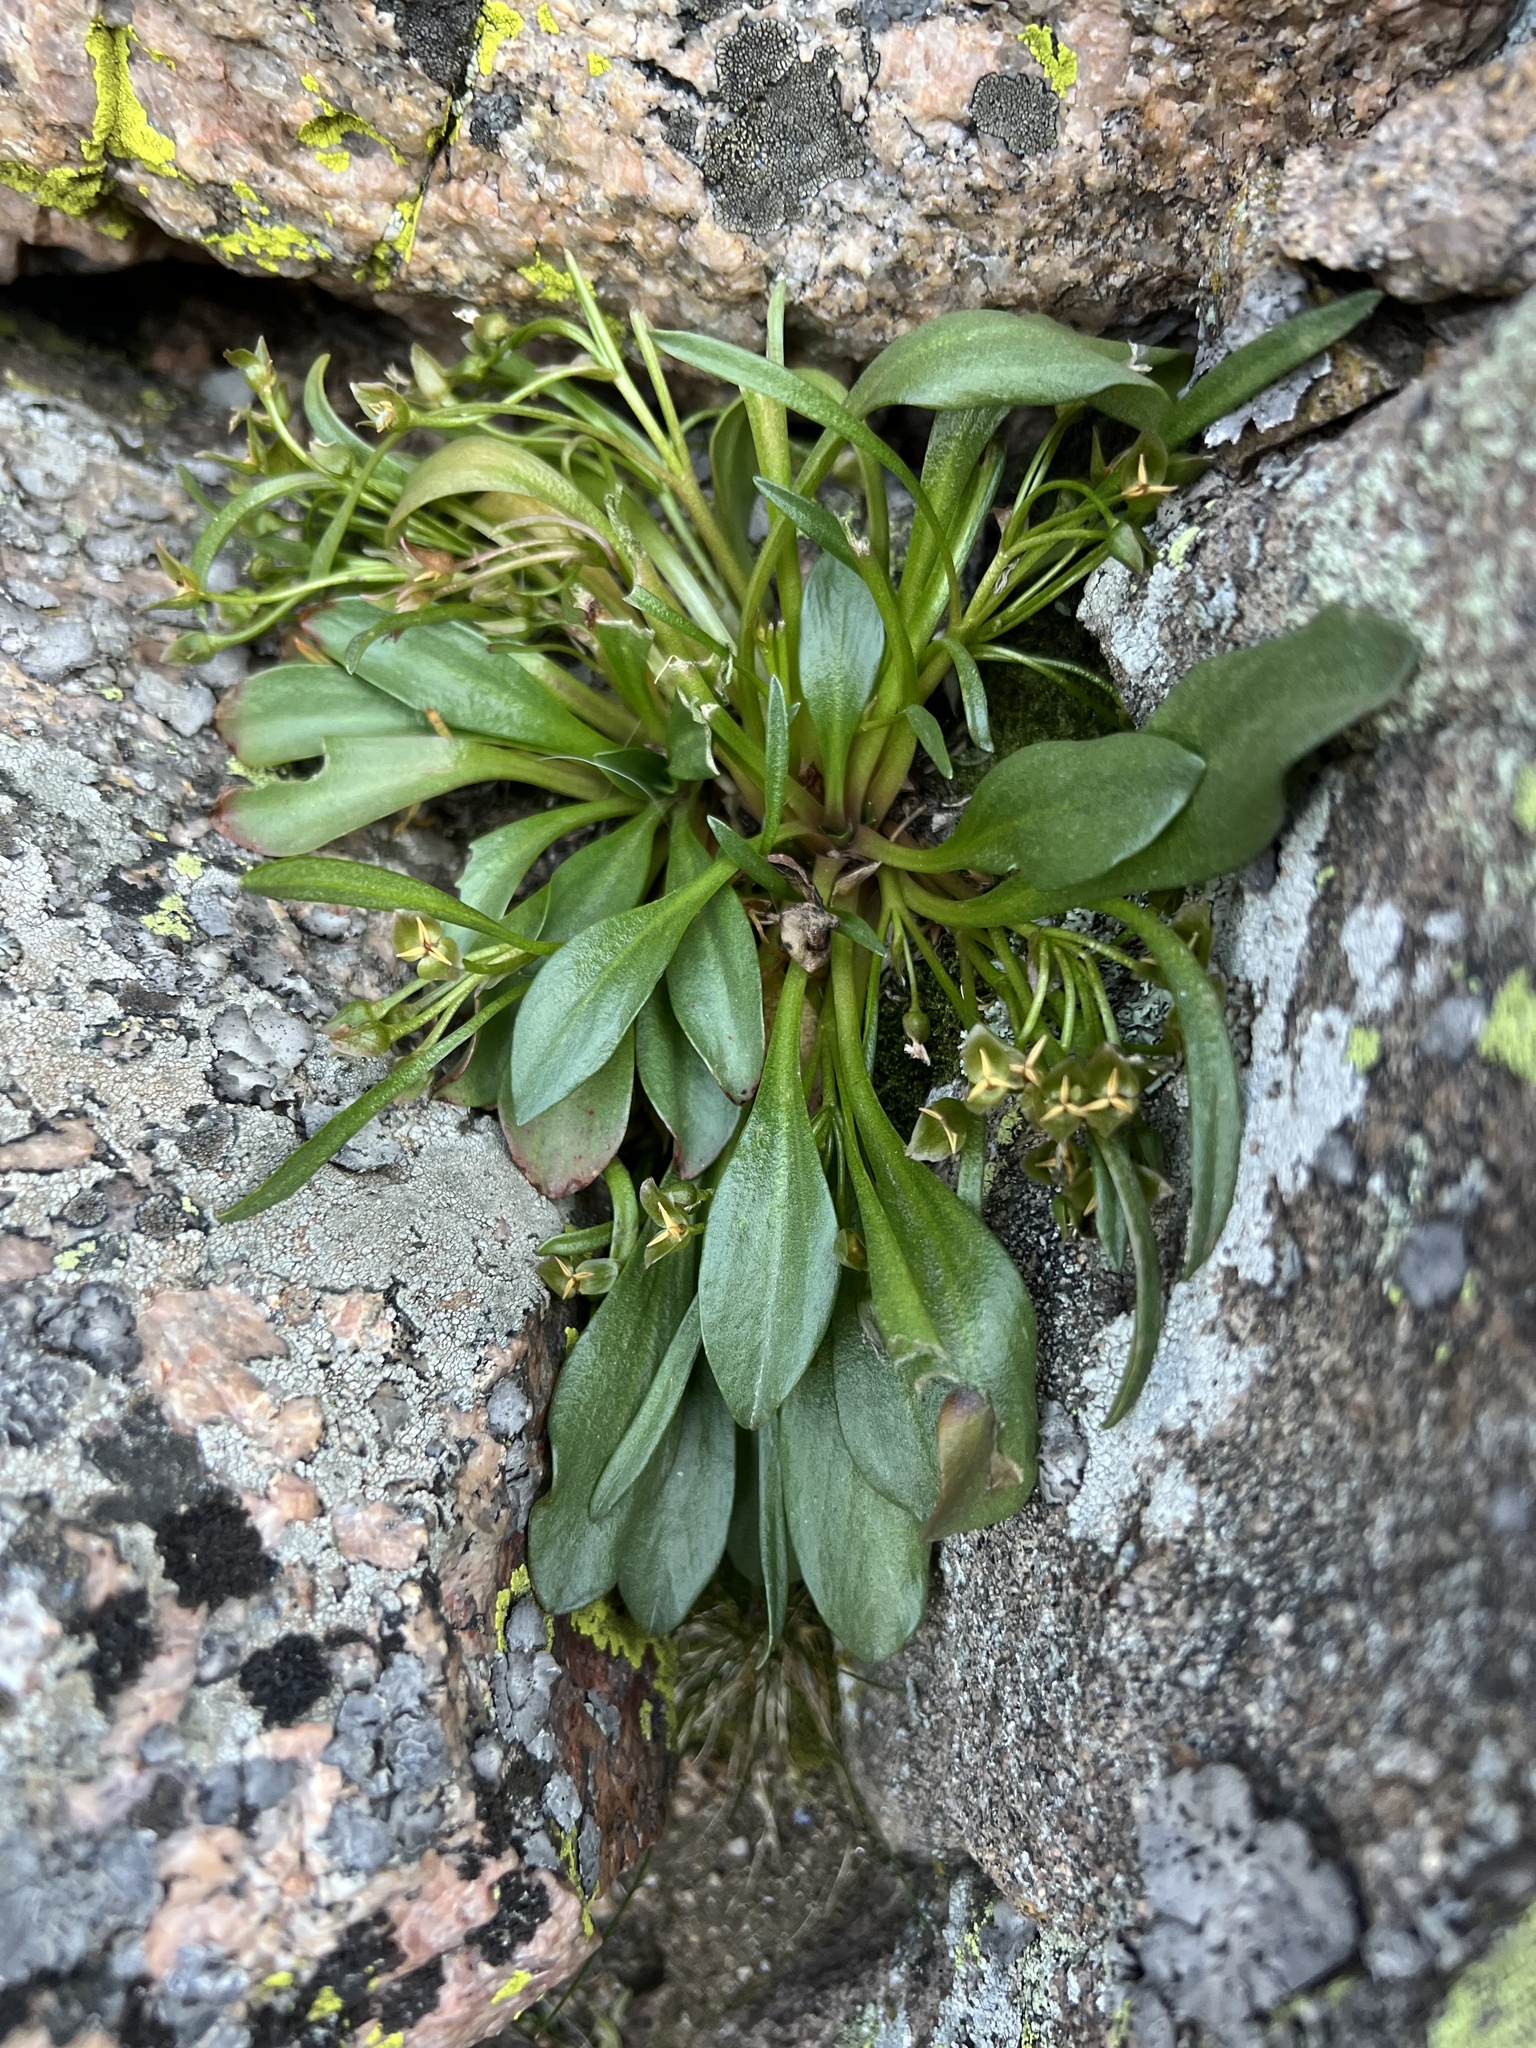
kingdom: Plantae
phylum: Tracheophyta
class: Magnoliopsida
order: Caryophyllales
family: Montiaceae
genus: Claytonia
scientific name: Claytonia megarhiza
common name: Alpine spring beauty
